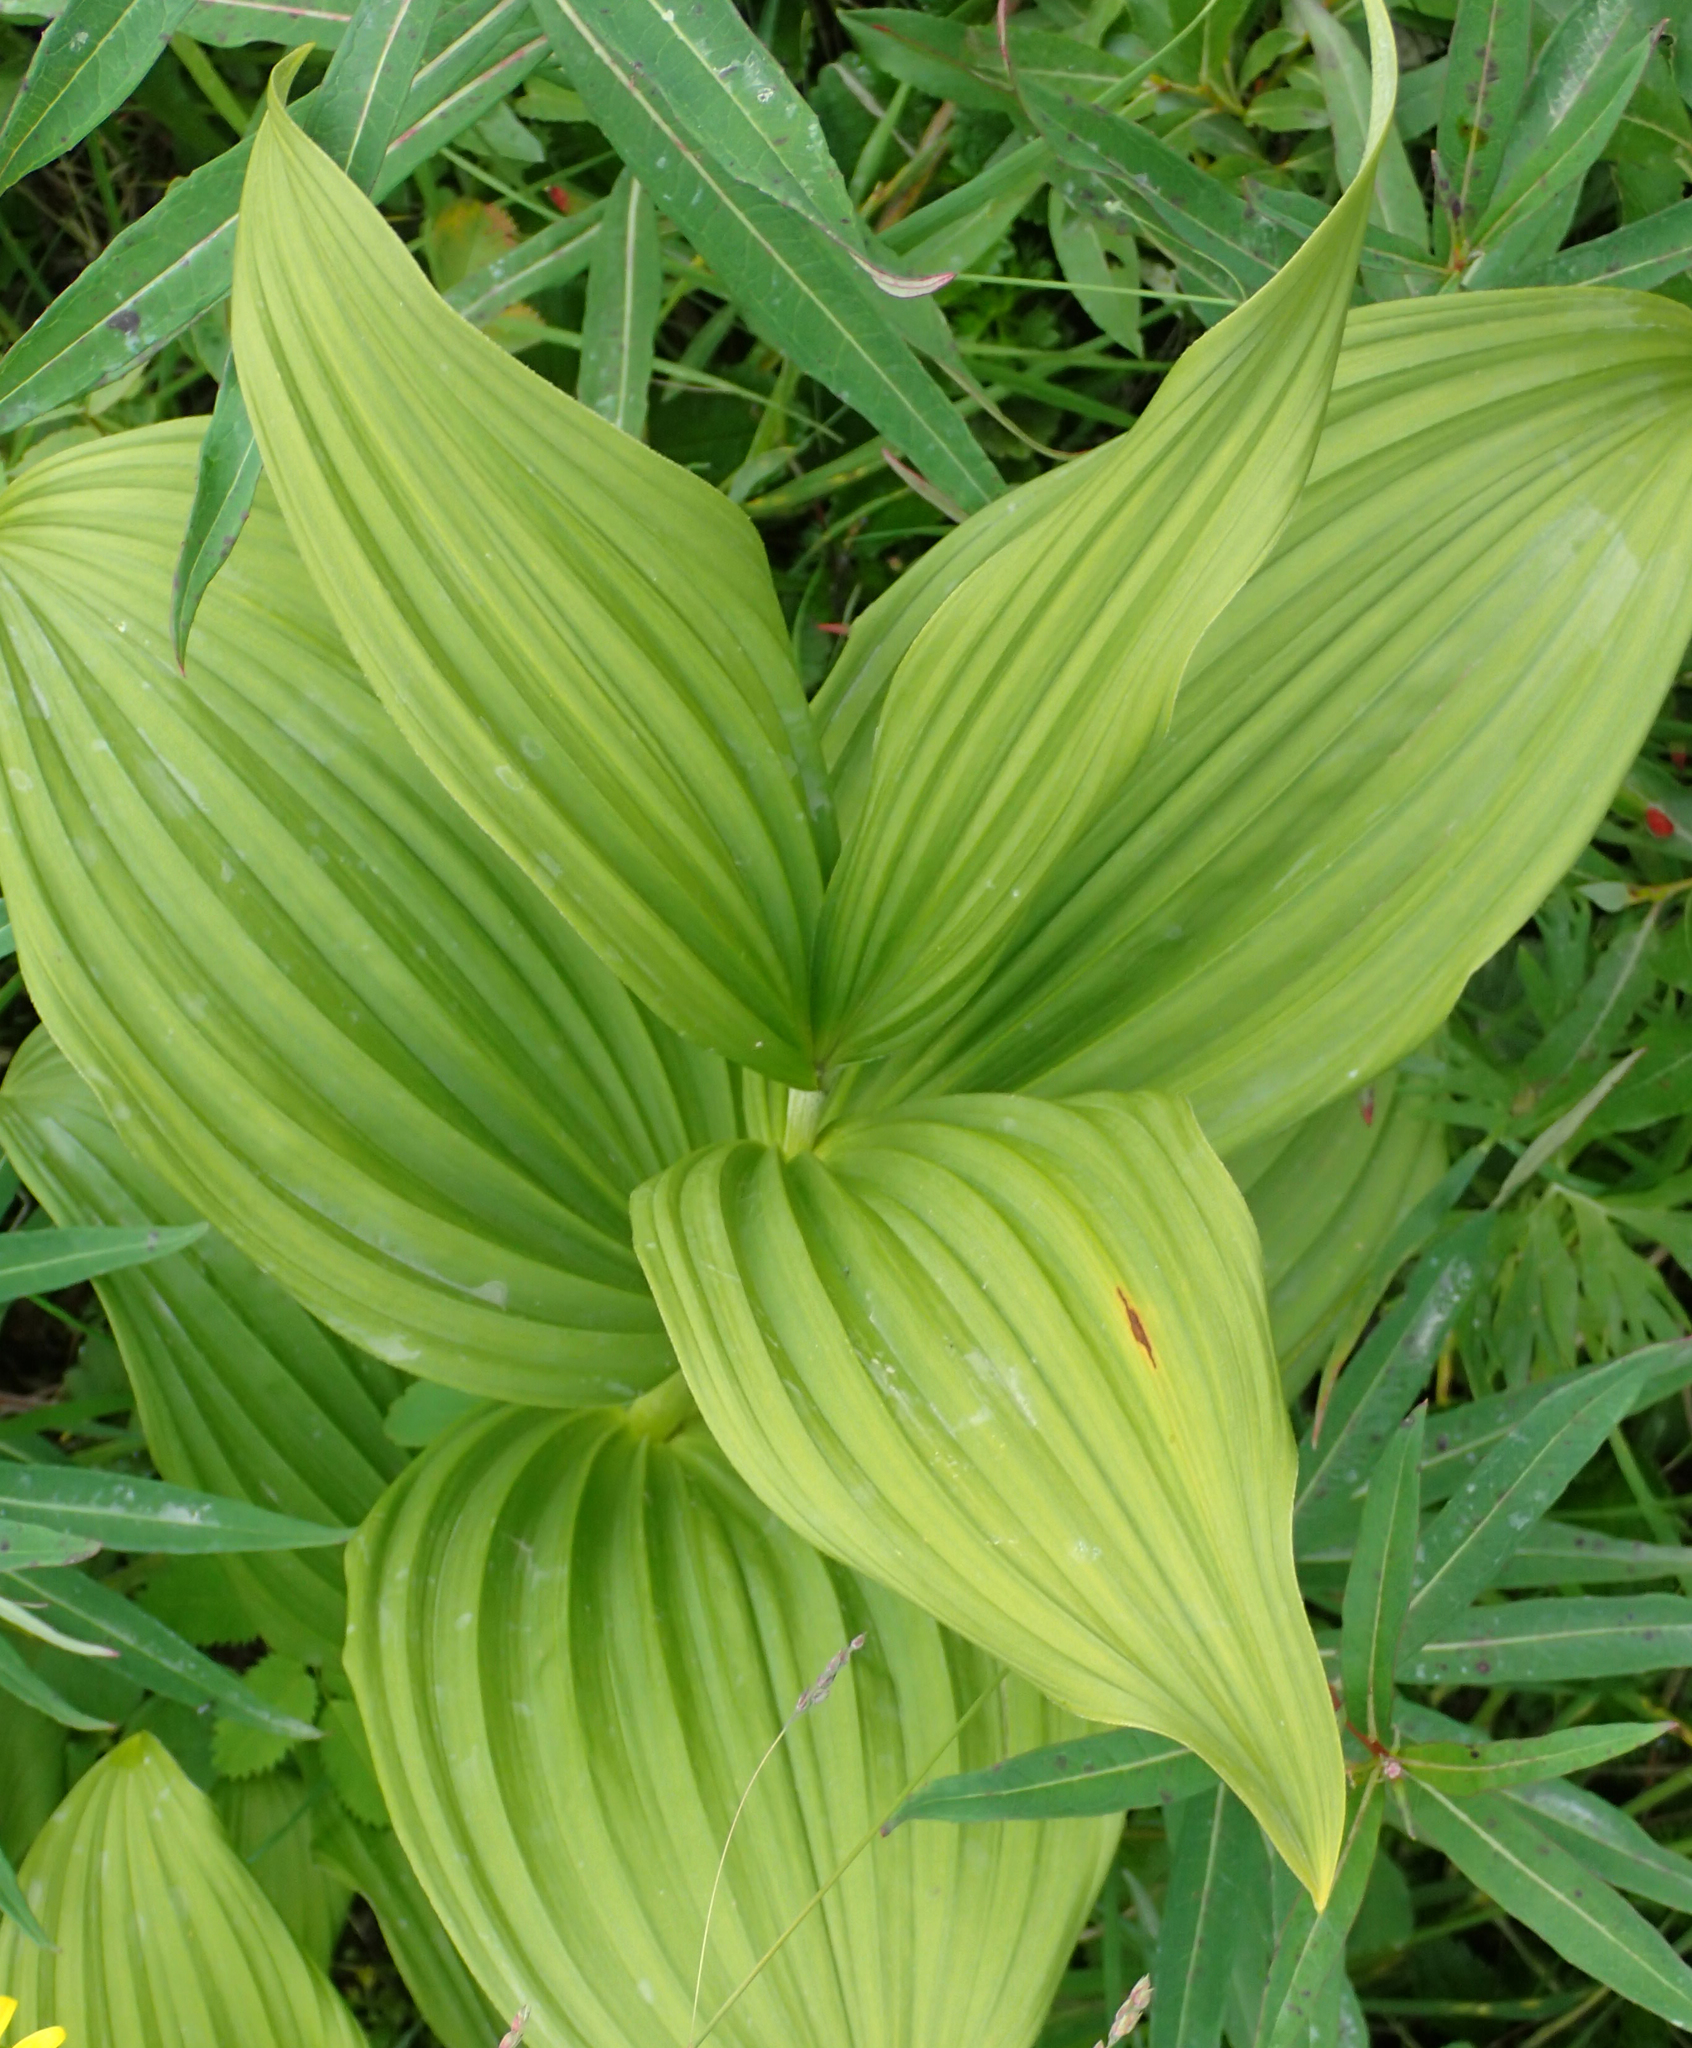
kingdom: Plantae
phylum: Tracheophyta
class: Liliopsida
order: Liliales
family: Melanthiaceae
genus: Veratrum
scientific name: Veratrum viride
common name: American false hellebore
